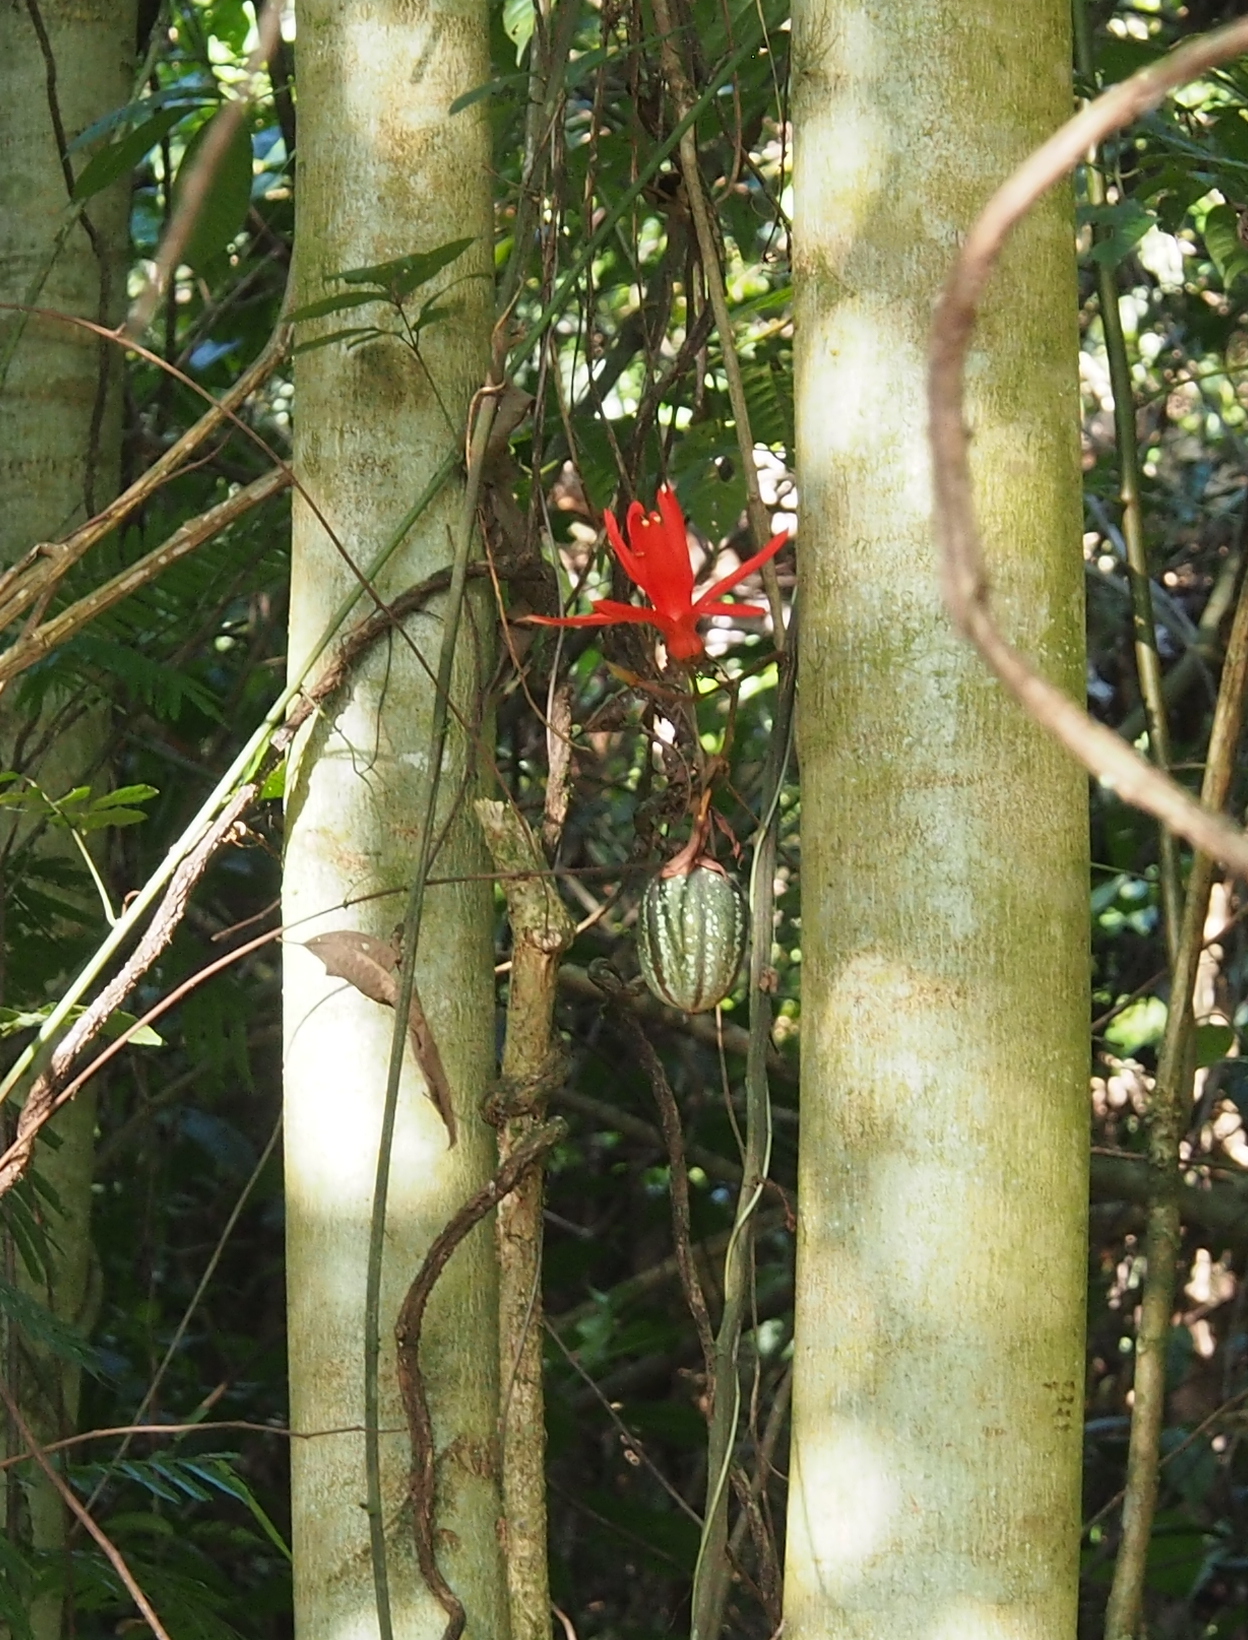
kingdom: Plantae
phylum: Tracheophyta
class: Magnoliopsida
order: Malpighiales
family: Passifloraceae
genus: Passiflora
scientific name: Passiflora vitifolia
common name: Perfumed passionflower
